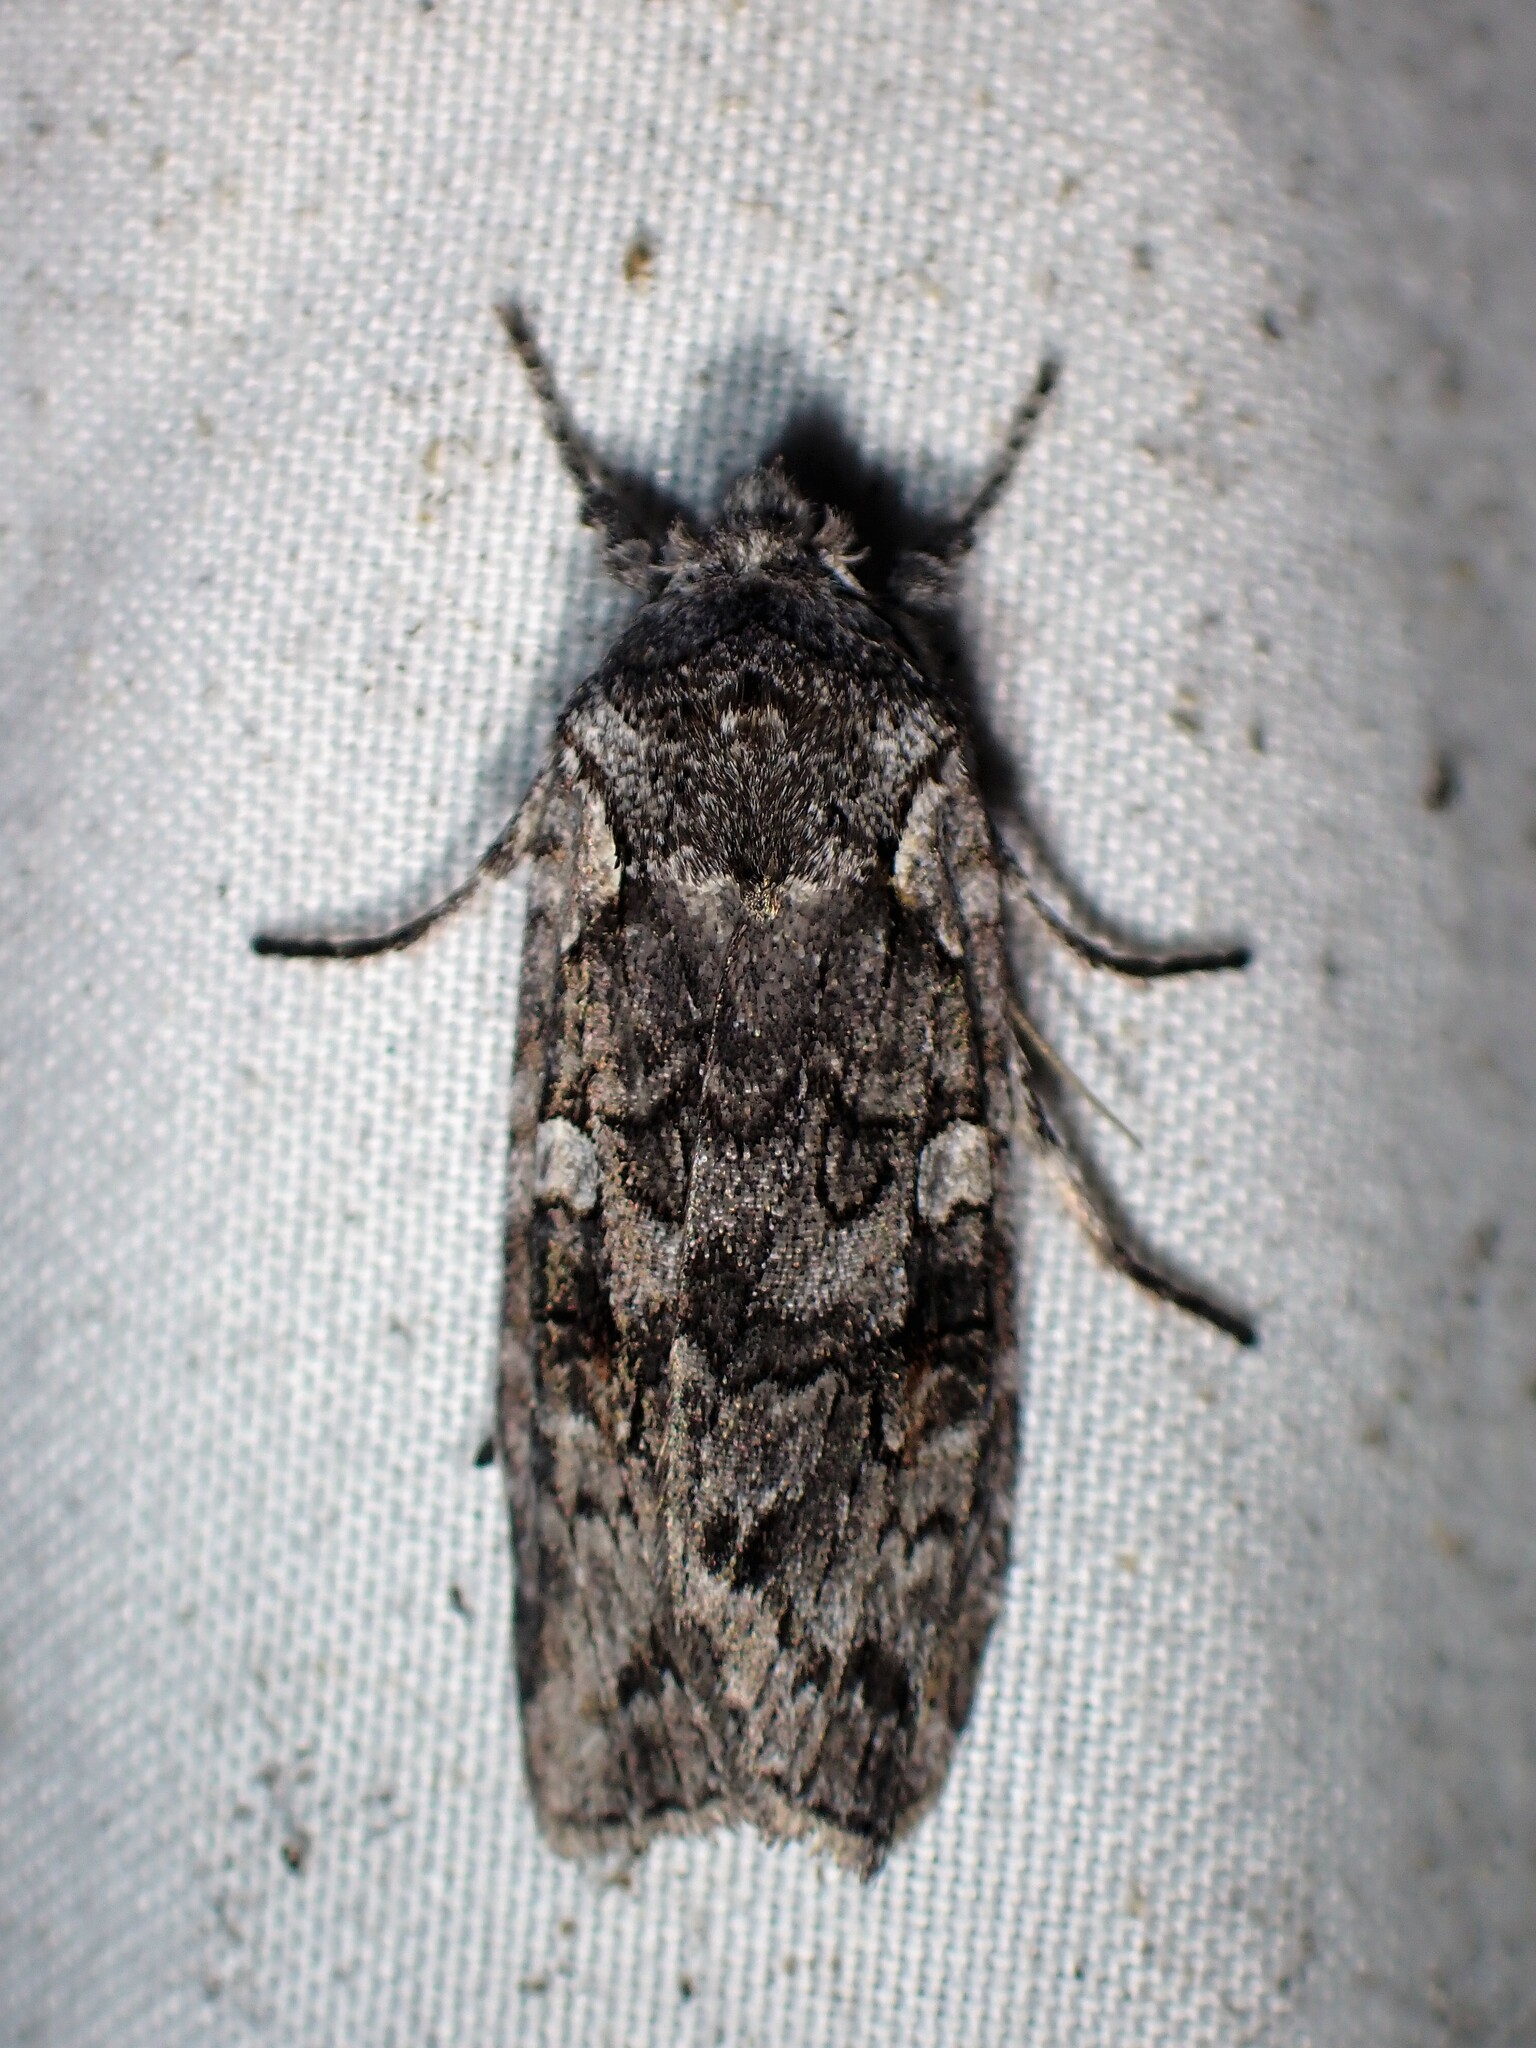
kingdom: Animalia
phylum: Arthropoda
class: Insecta
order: Lepidoptera
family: Noctuidae
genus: Lithophane
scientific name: Lithophane baileyi
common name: Bailey's pinion moth
